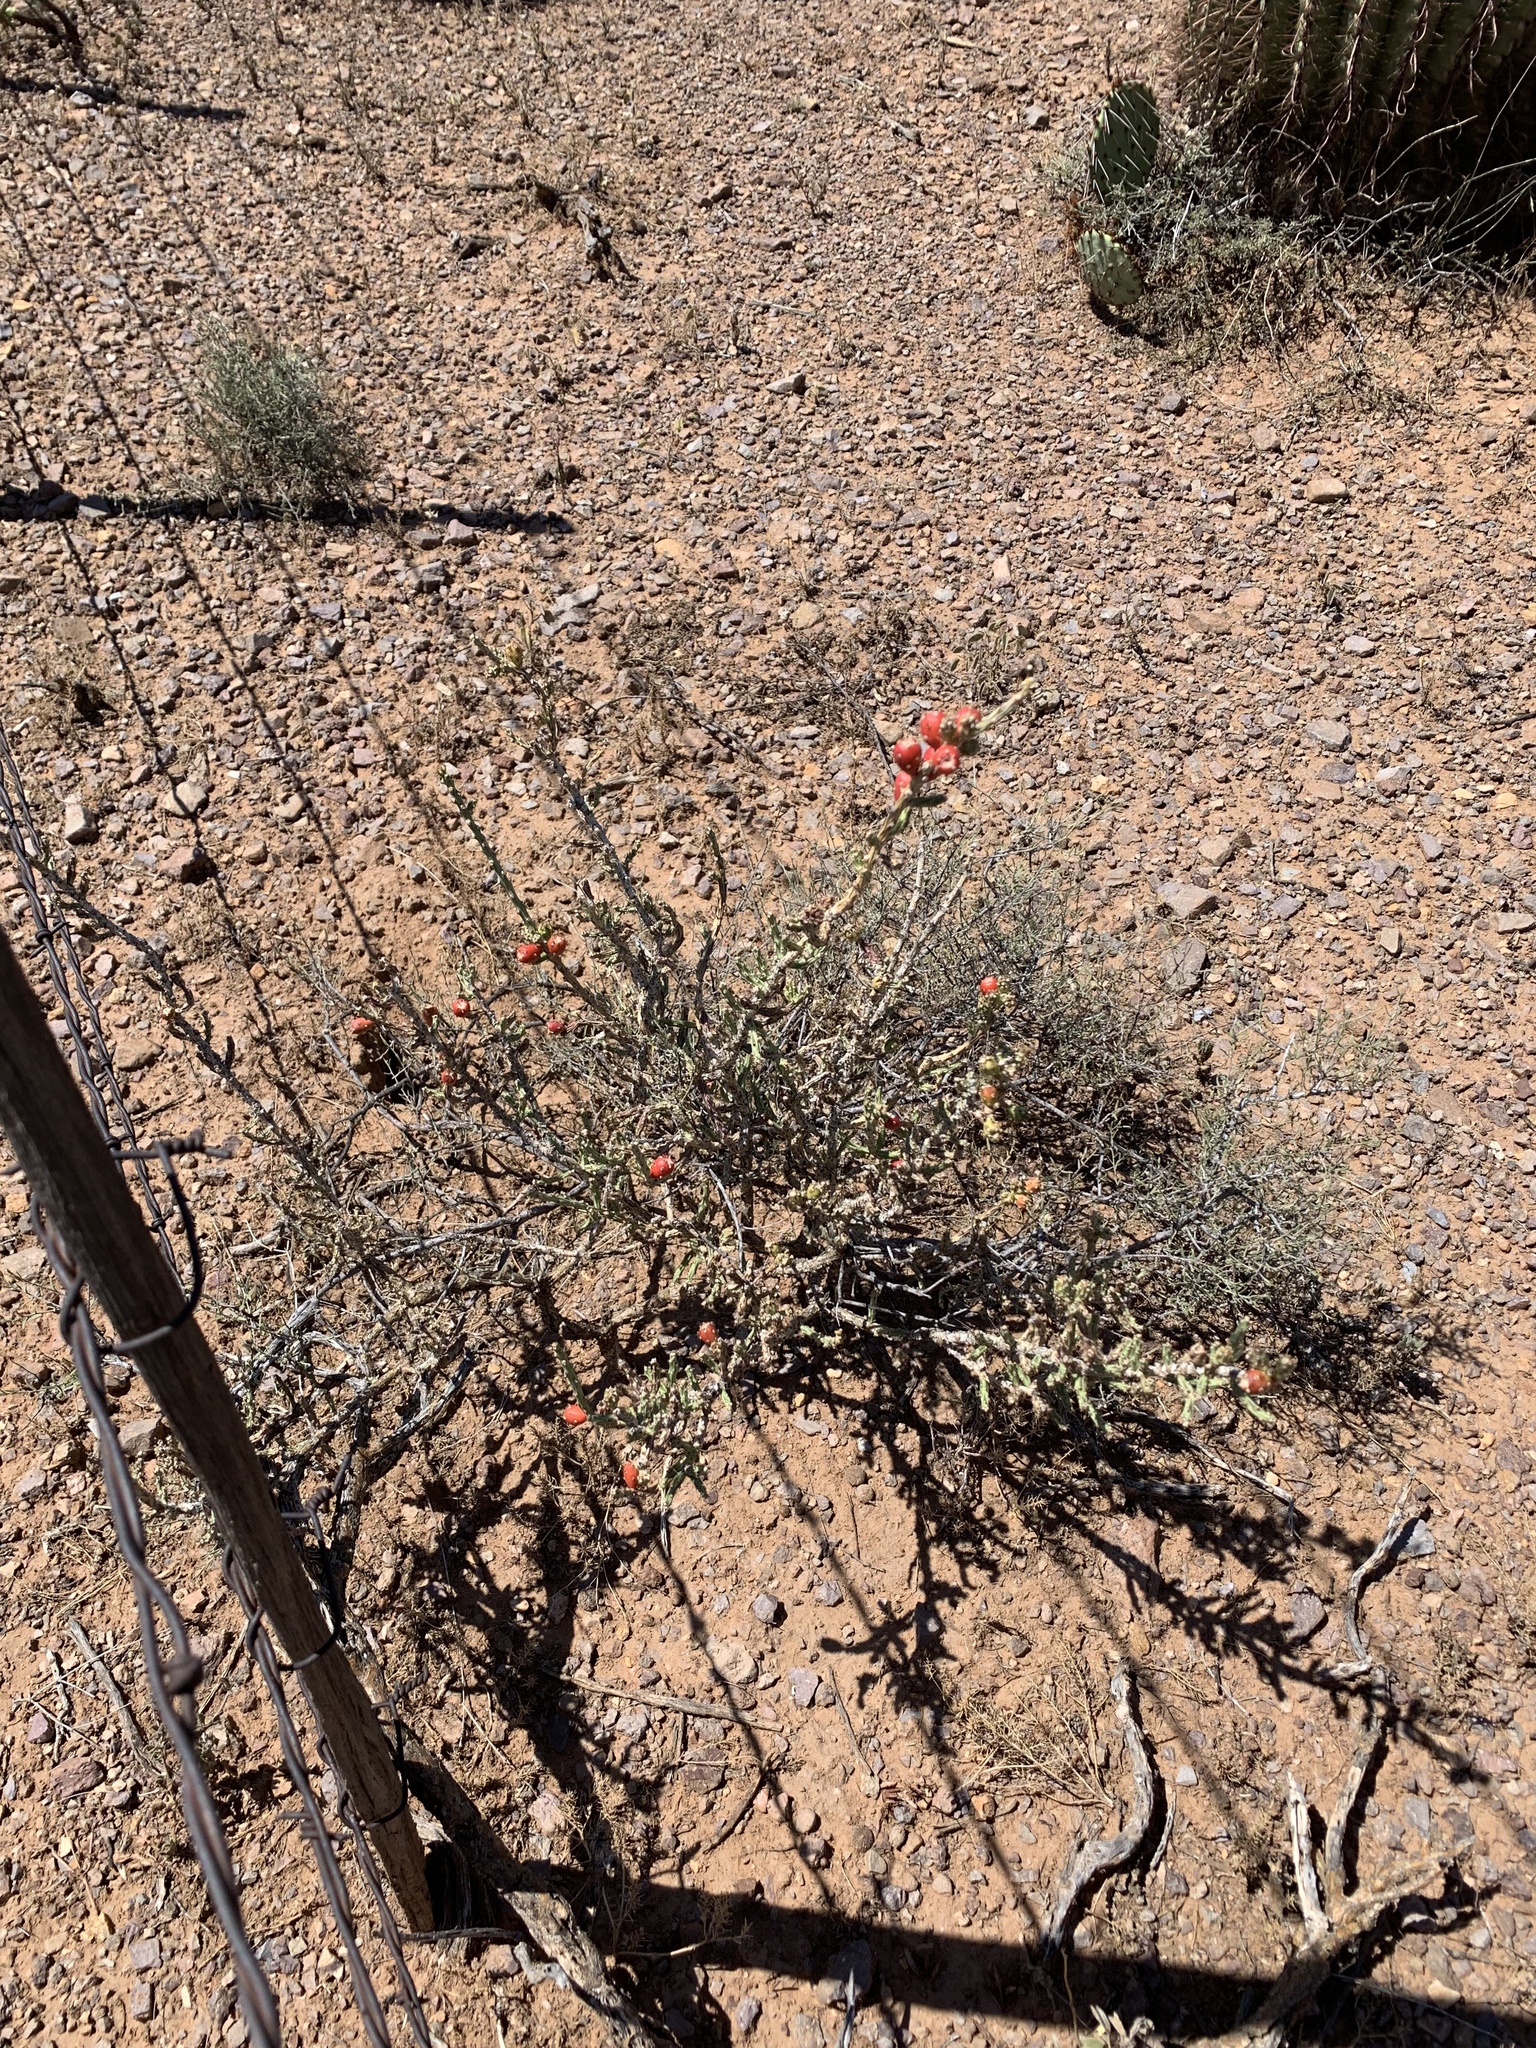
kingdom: Plantae
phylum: Tracheophyta
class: Magnoliopsida
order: Caryophyllales
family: Cactaceae
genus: Cylindropuntia
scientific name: Cylindropuntia leptocaulis
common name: Christmas cactus
